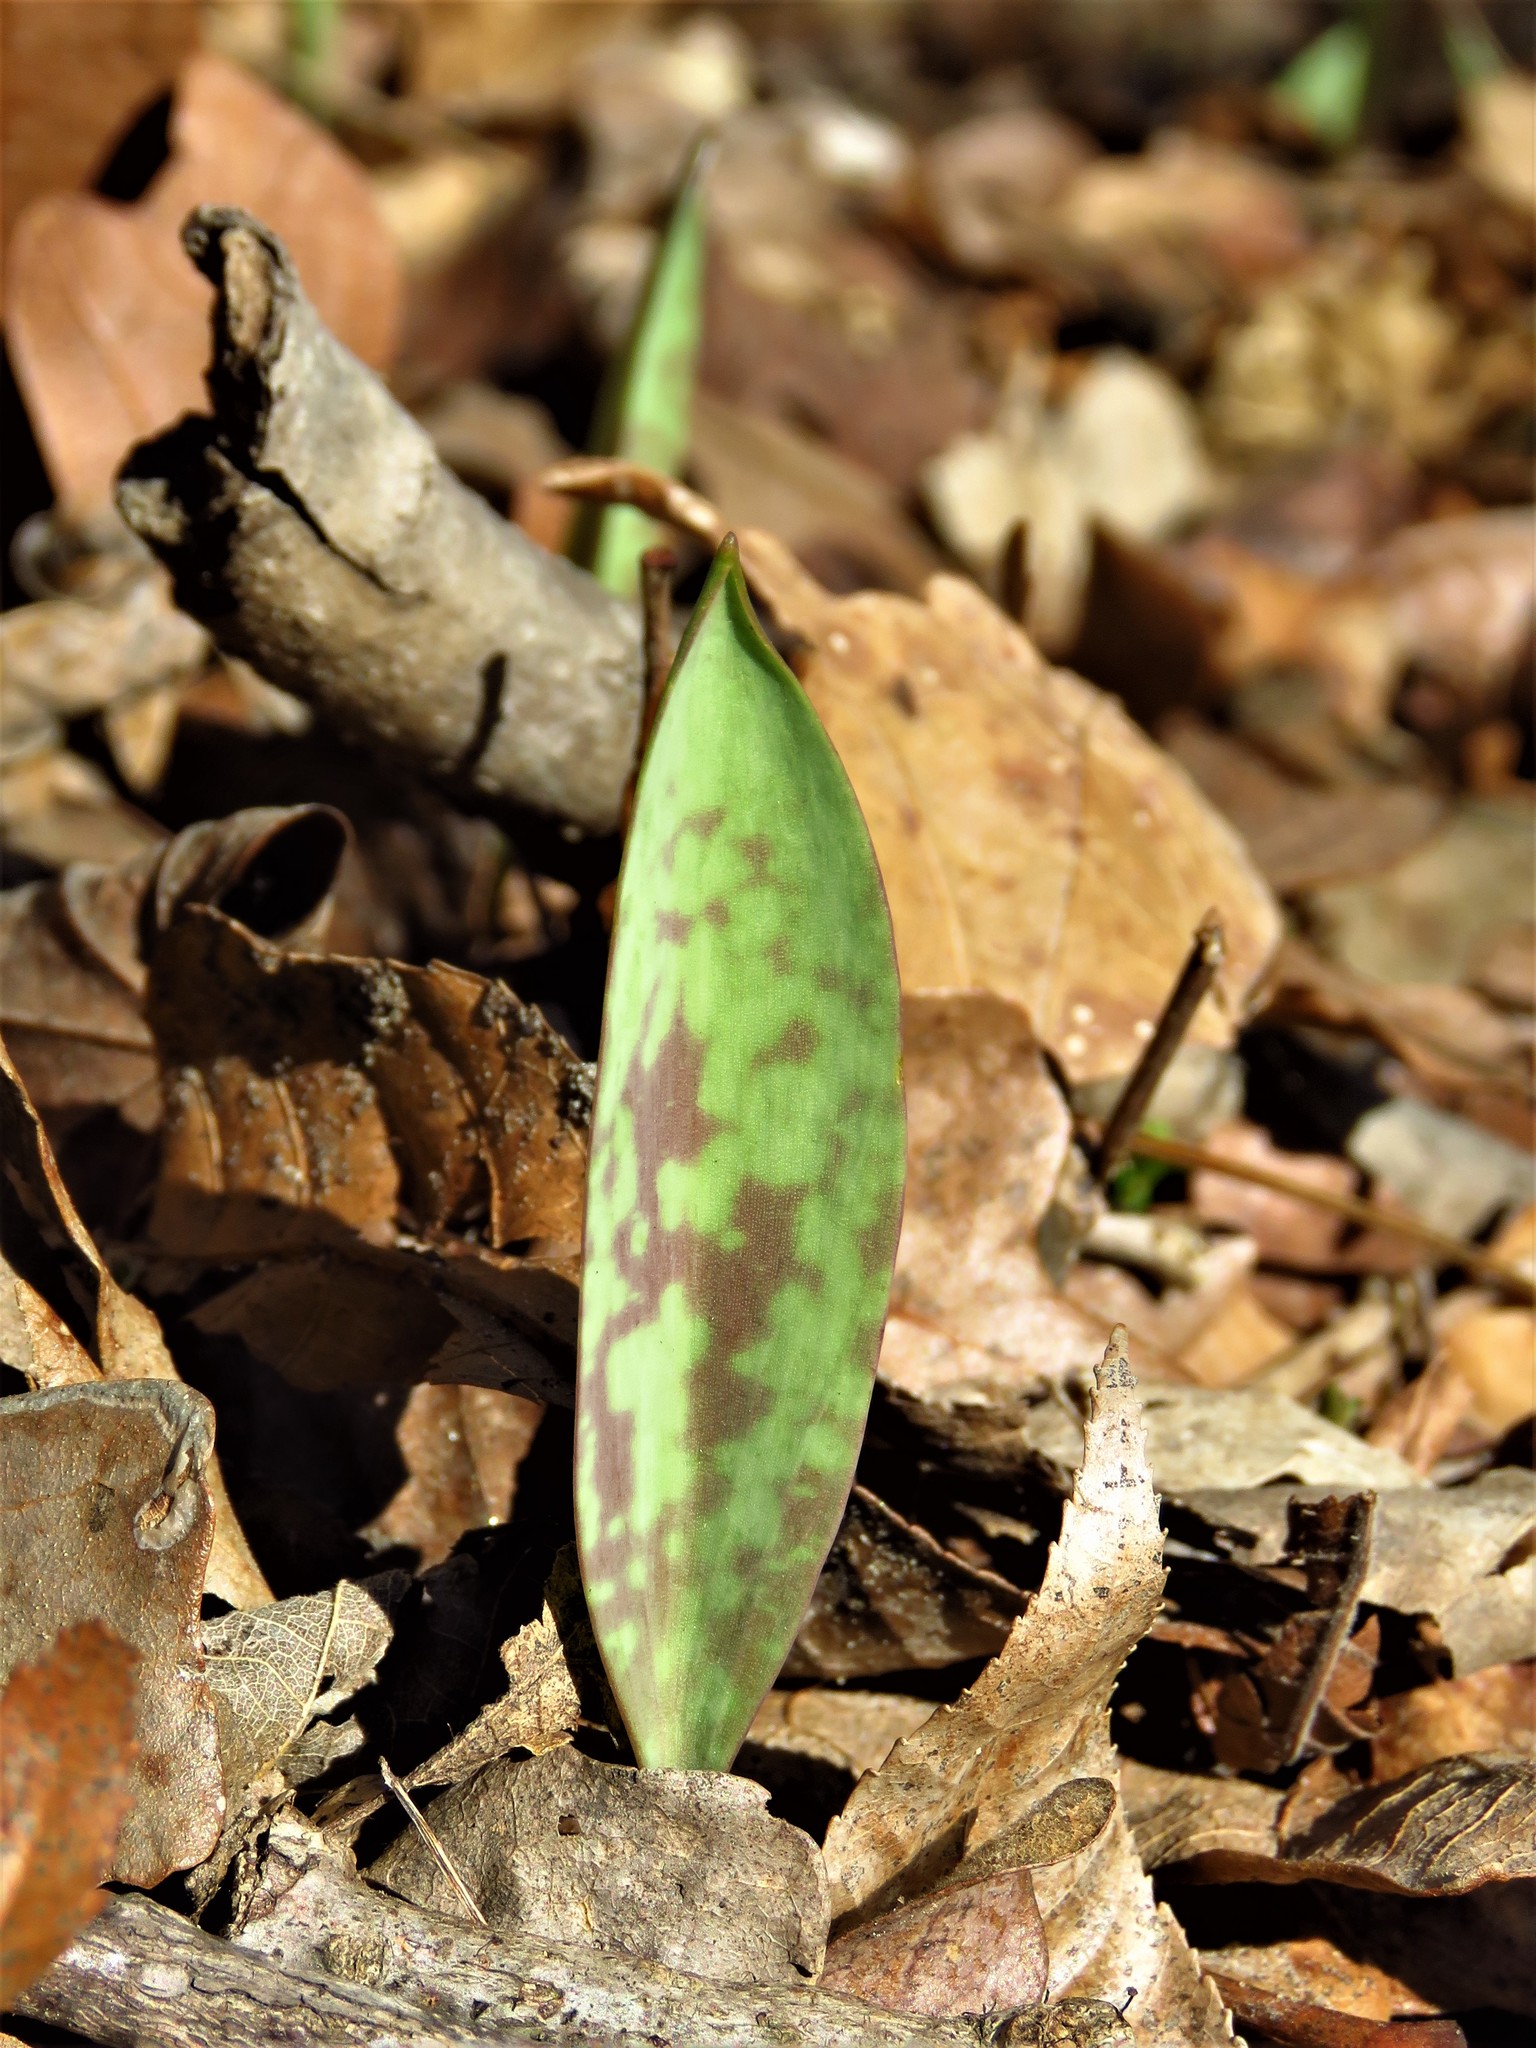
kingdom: Plantae
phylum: Tracheophyta
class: Liliopsida
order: Liliales
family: Liliaceae
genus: Erythronium
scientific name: Erythronium albidum
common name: White trout-lily
